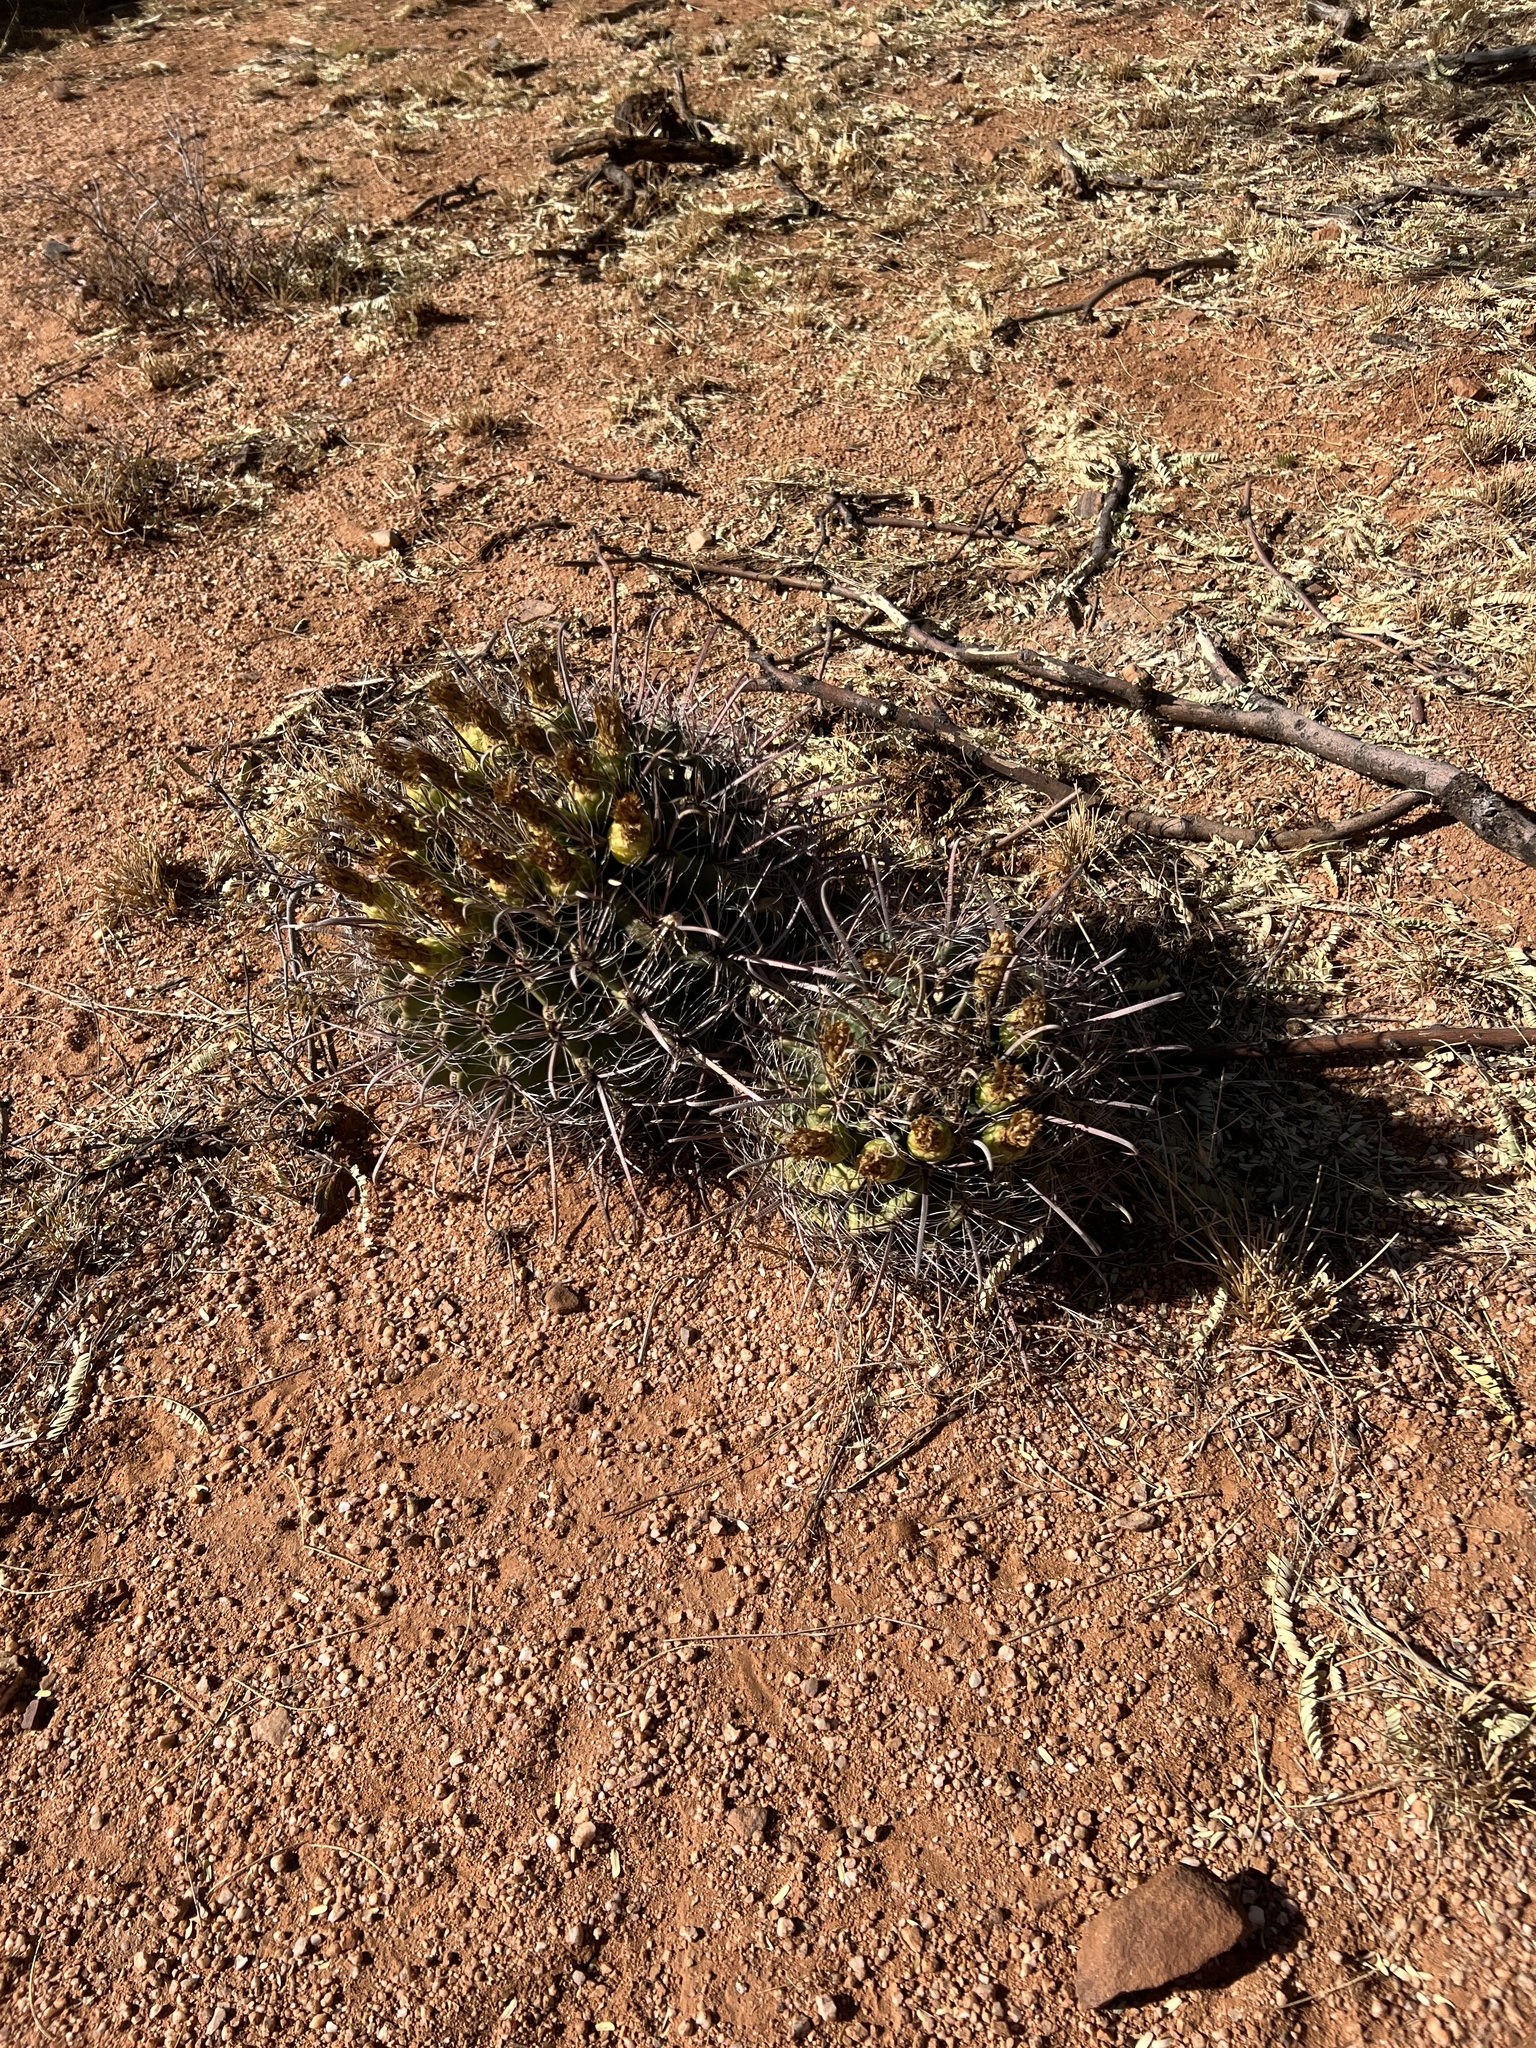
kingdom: Plantae
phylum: Tracheophyta
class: Magnoliopsida
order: Caryophyllales
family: Cactaceae
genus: Ferocactus
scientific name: Ferocactus wislizeni
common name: Candy barrel cactus
